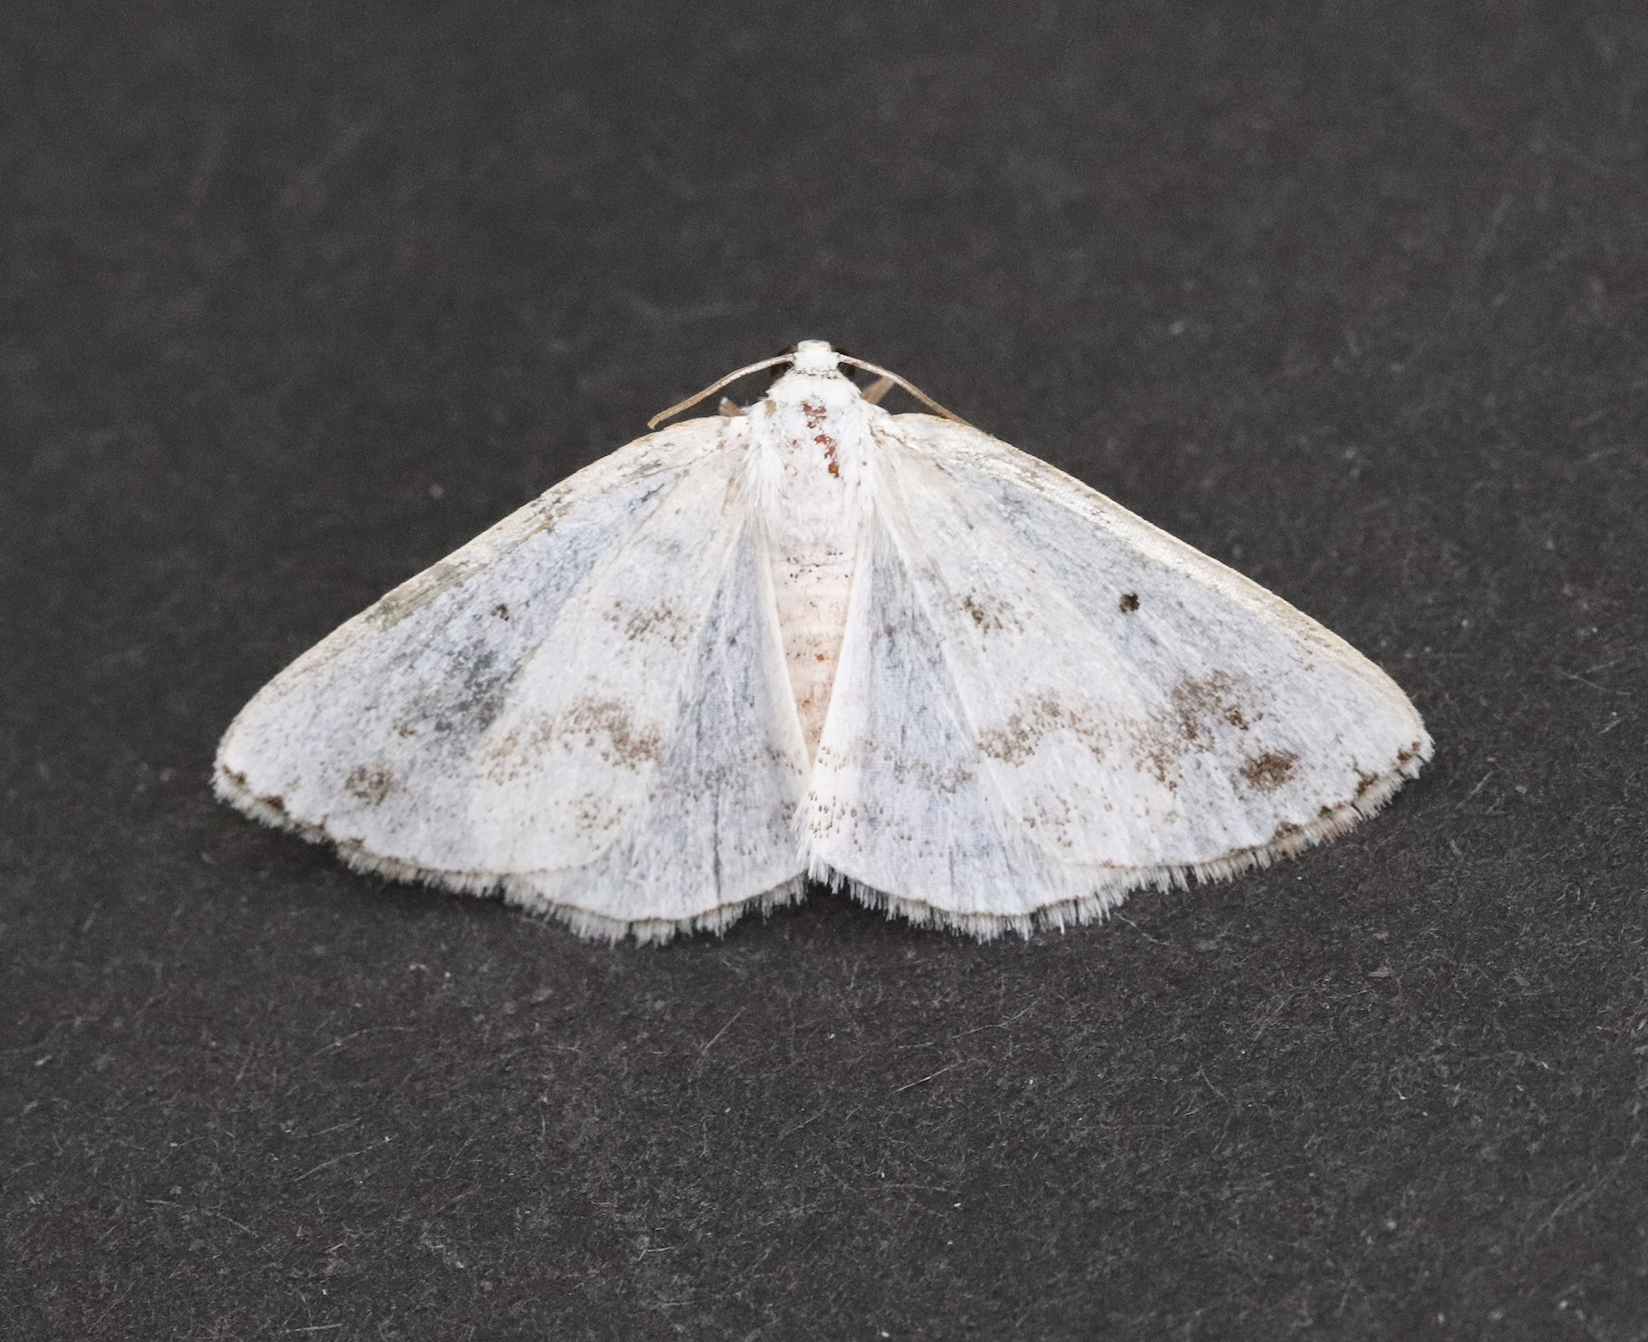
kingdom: Animalia
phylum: Arthropoda
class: Insecta
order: Lepidoptera
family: Geometridae
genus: Lomographa
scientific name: Lomographa temerata
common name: Clouded silver
